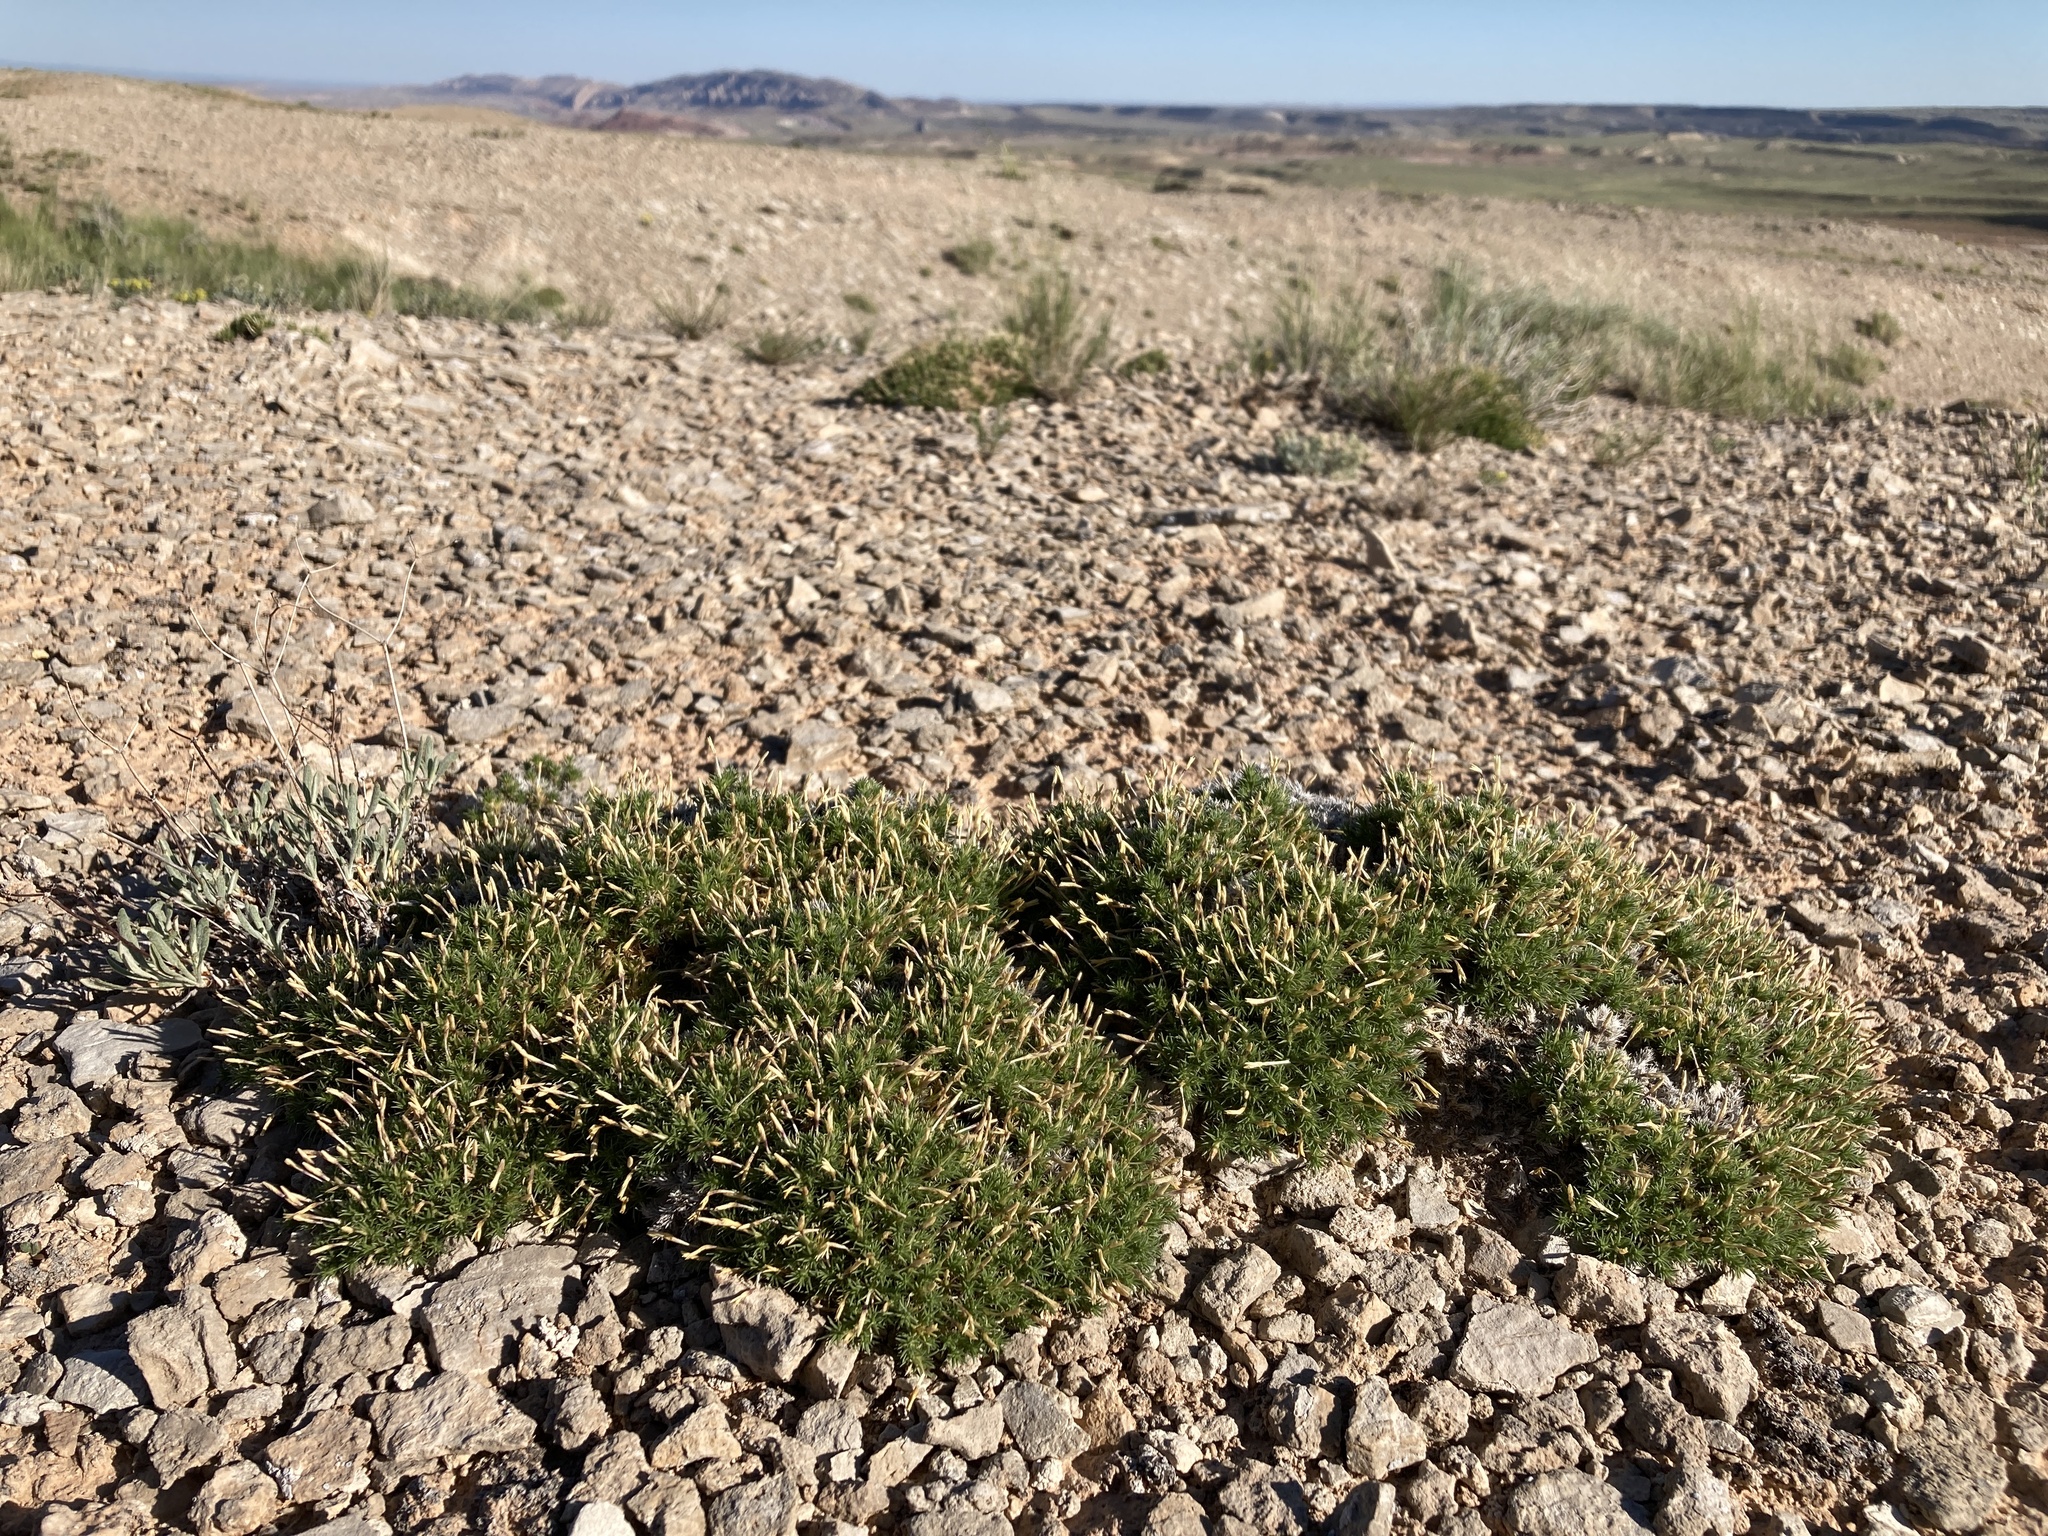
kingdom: Plantae
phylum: Tracheophyta
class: Magnoliopsida
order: Ericales
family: Polemoniaceae
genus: Linanthus
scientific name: Linanthus caespitosus
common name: Mat prickly phlox
